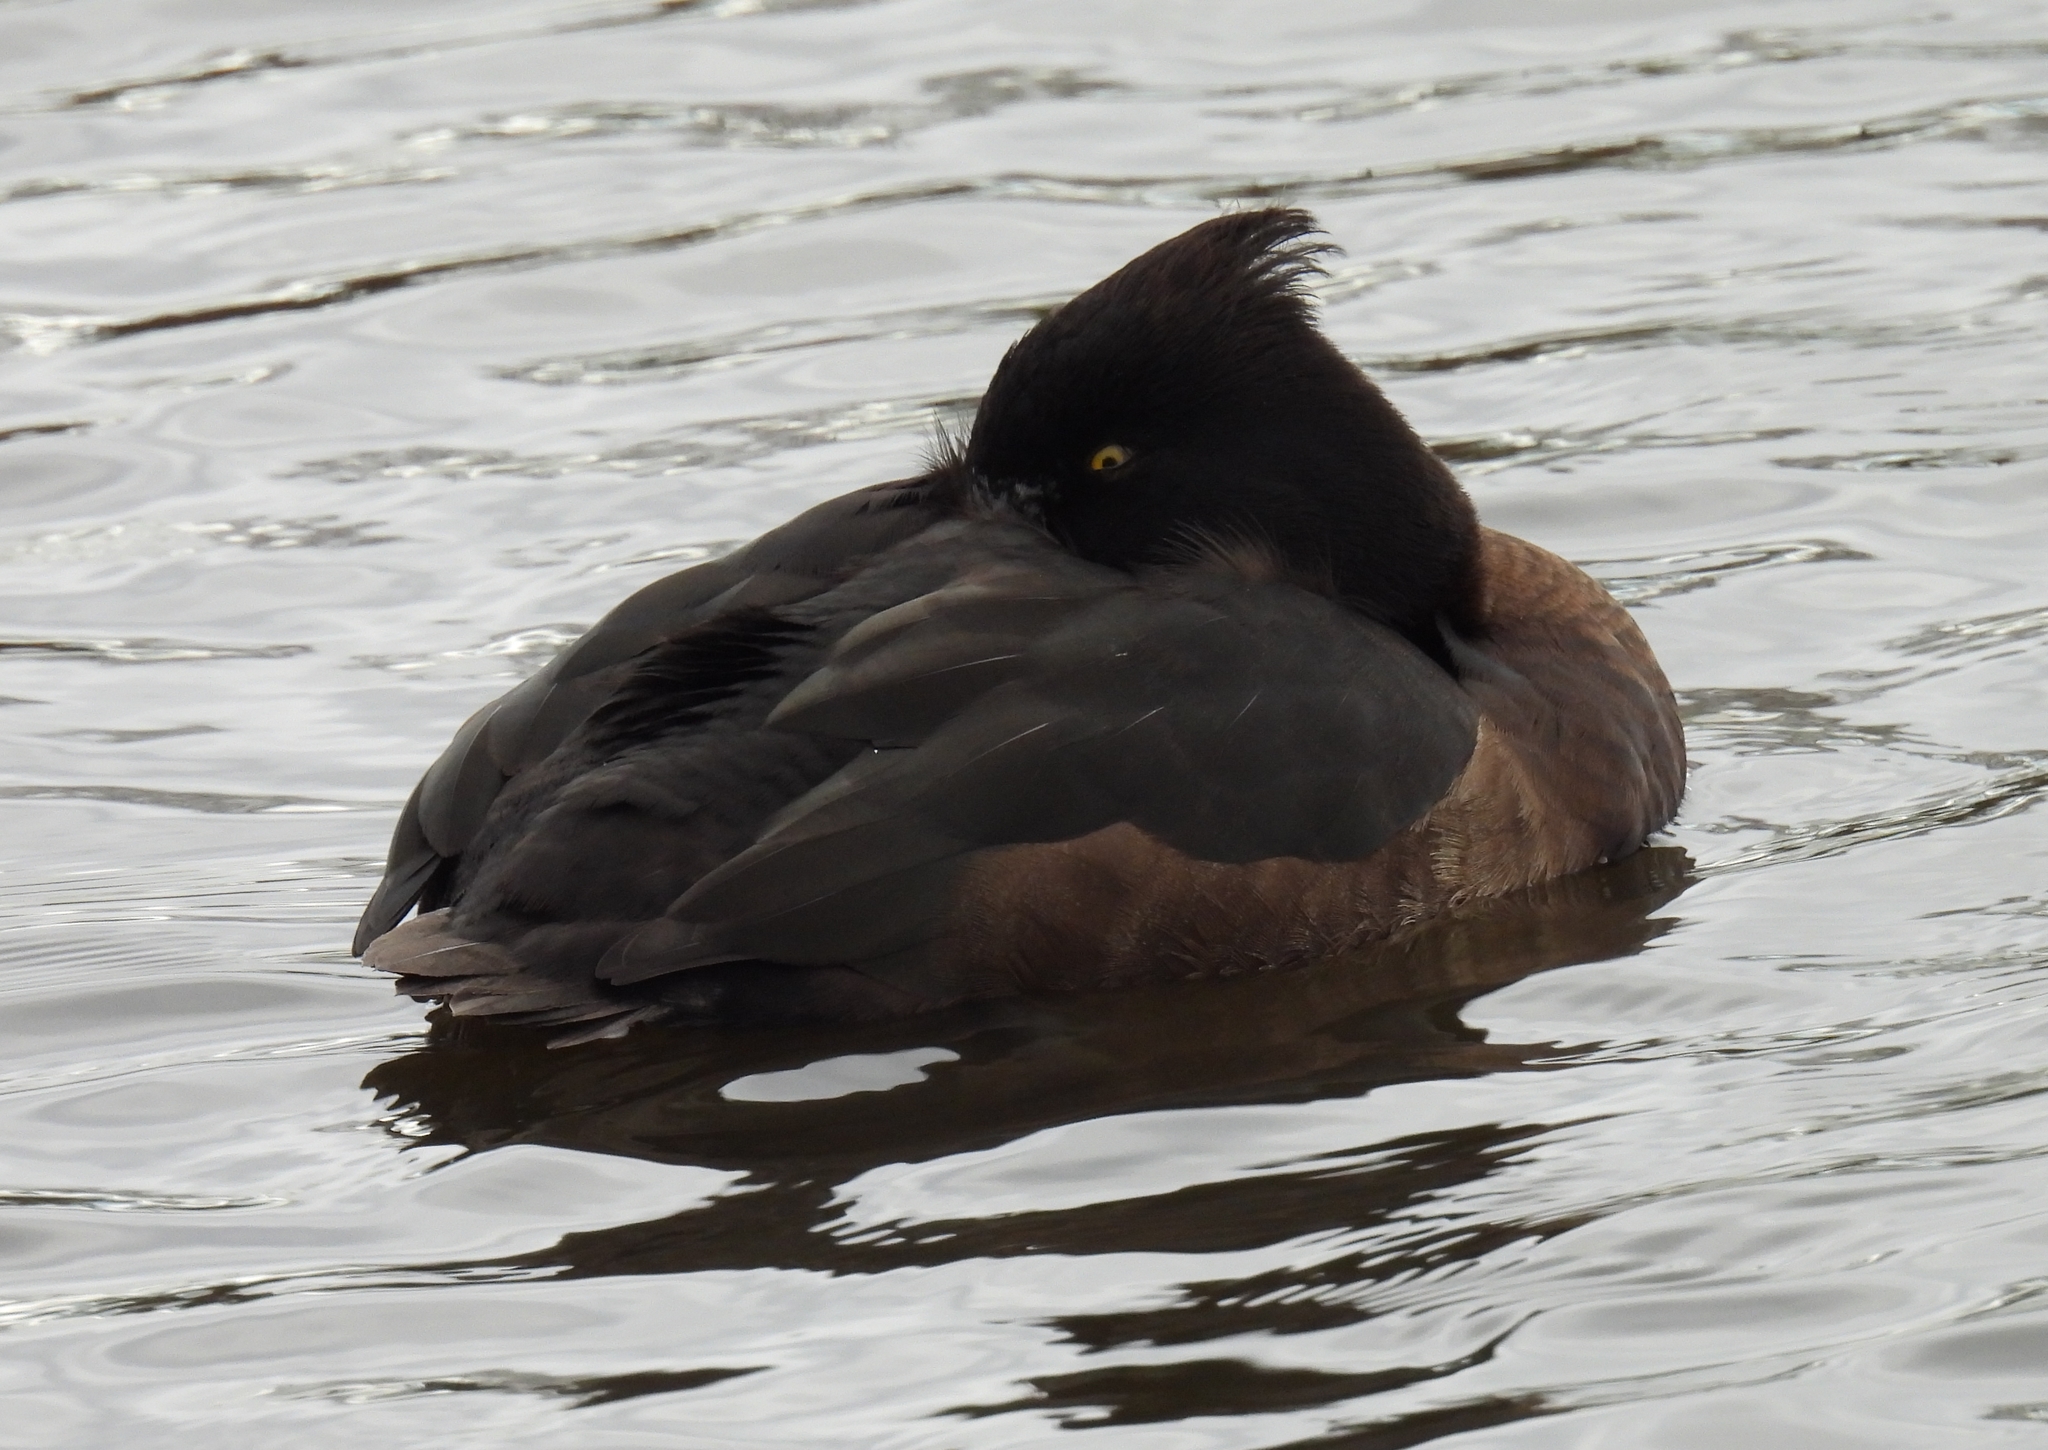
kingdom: Animalia
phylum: Chordata
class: Aves
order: Anseriformes
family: Anatidae
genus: Aythya
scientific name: Aythya fuligula
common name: Tufted duck
